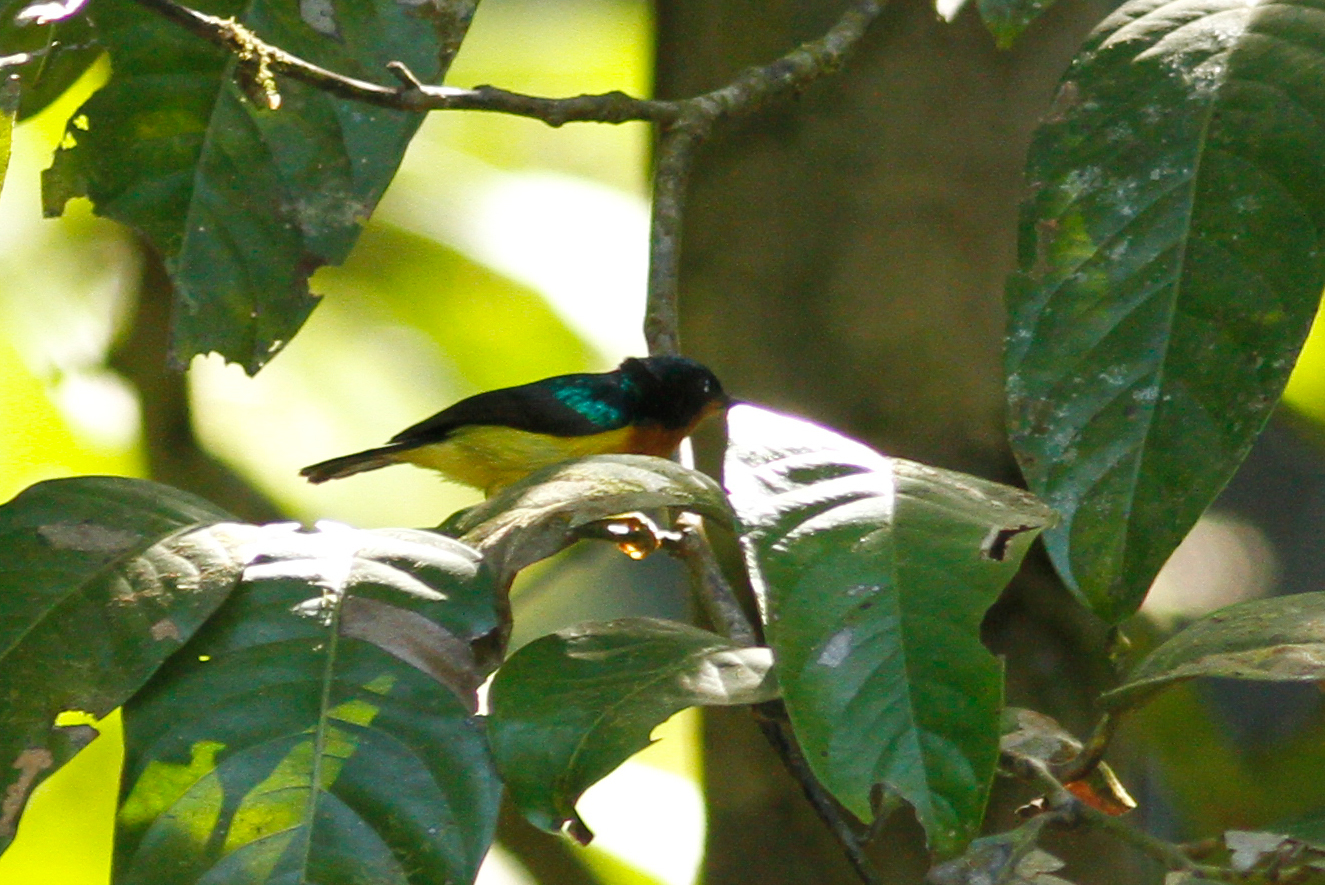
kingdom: Animalia
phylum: Chordata
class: Aves
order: Passeriformes
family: Nectariniidae
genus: Chalcoparia
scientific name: Chalcoparia singalensis
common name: Ruby-cheeked sunbird
